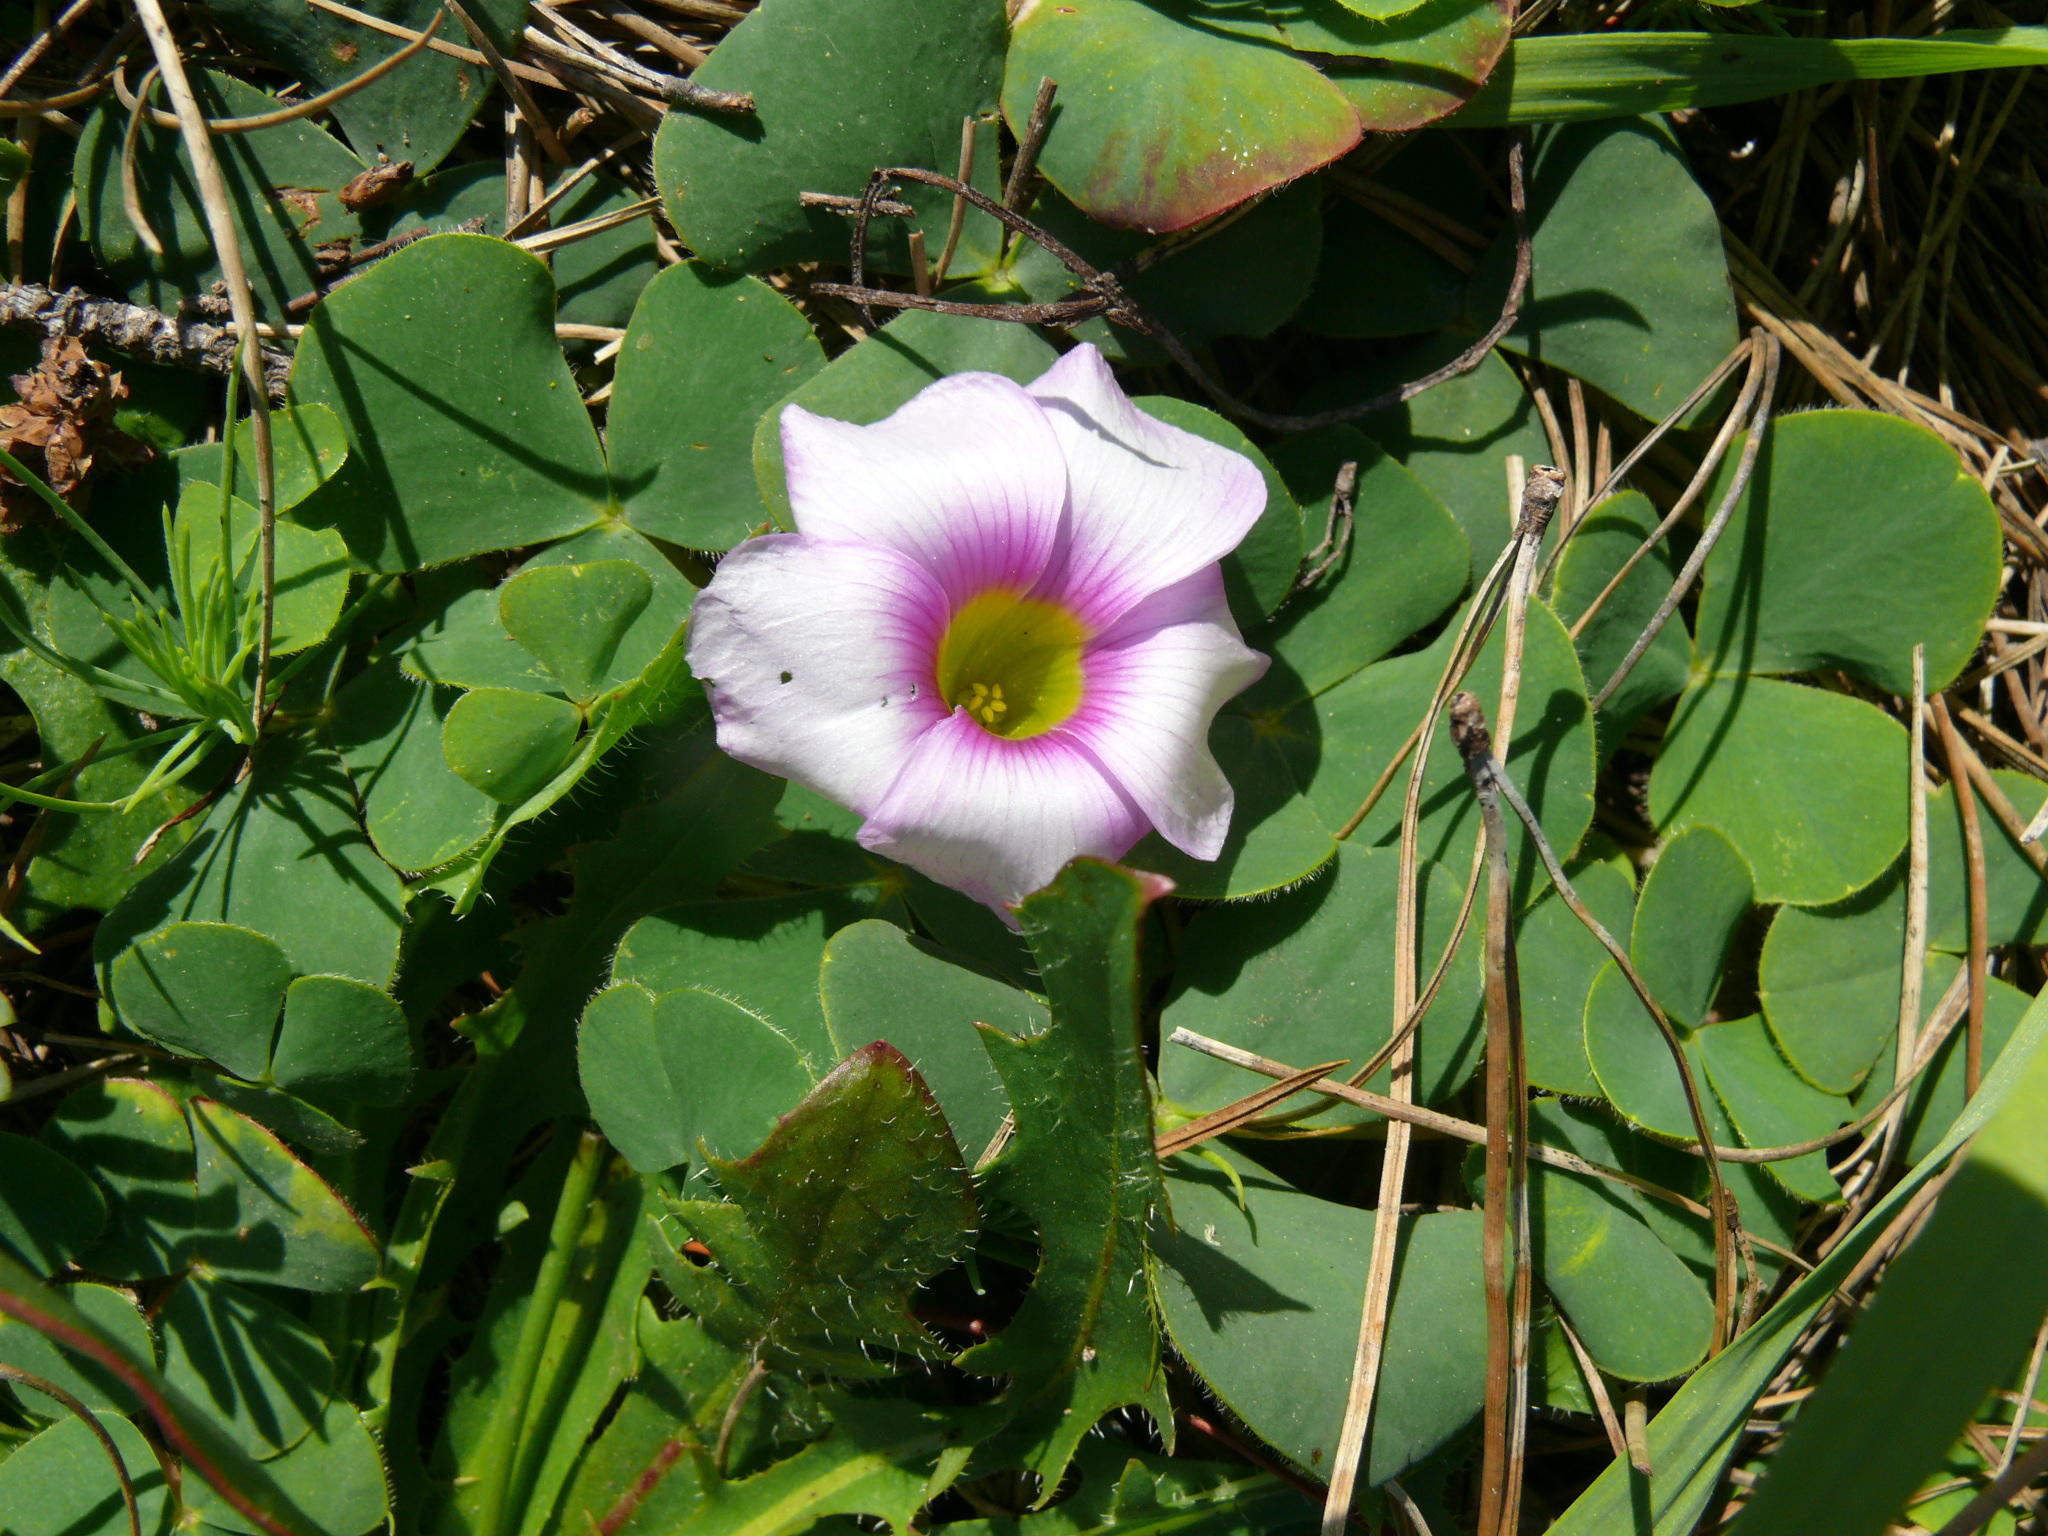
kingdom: Plantae
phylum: Tracheophyta
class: Magnoliopsida
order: Oxalidales
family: Oxalidaceae
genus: Oxalis
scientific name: Oxalis purpurea
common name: Purple woodsorrel
